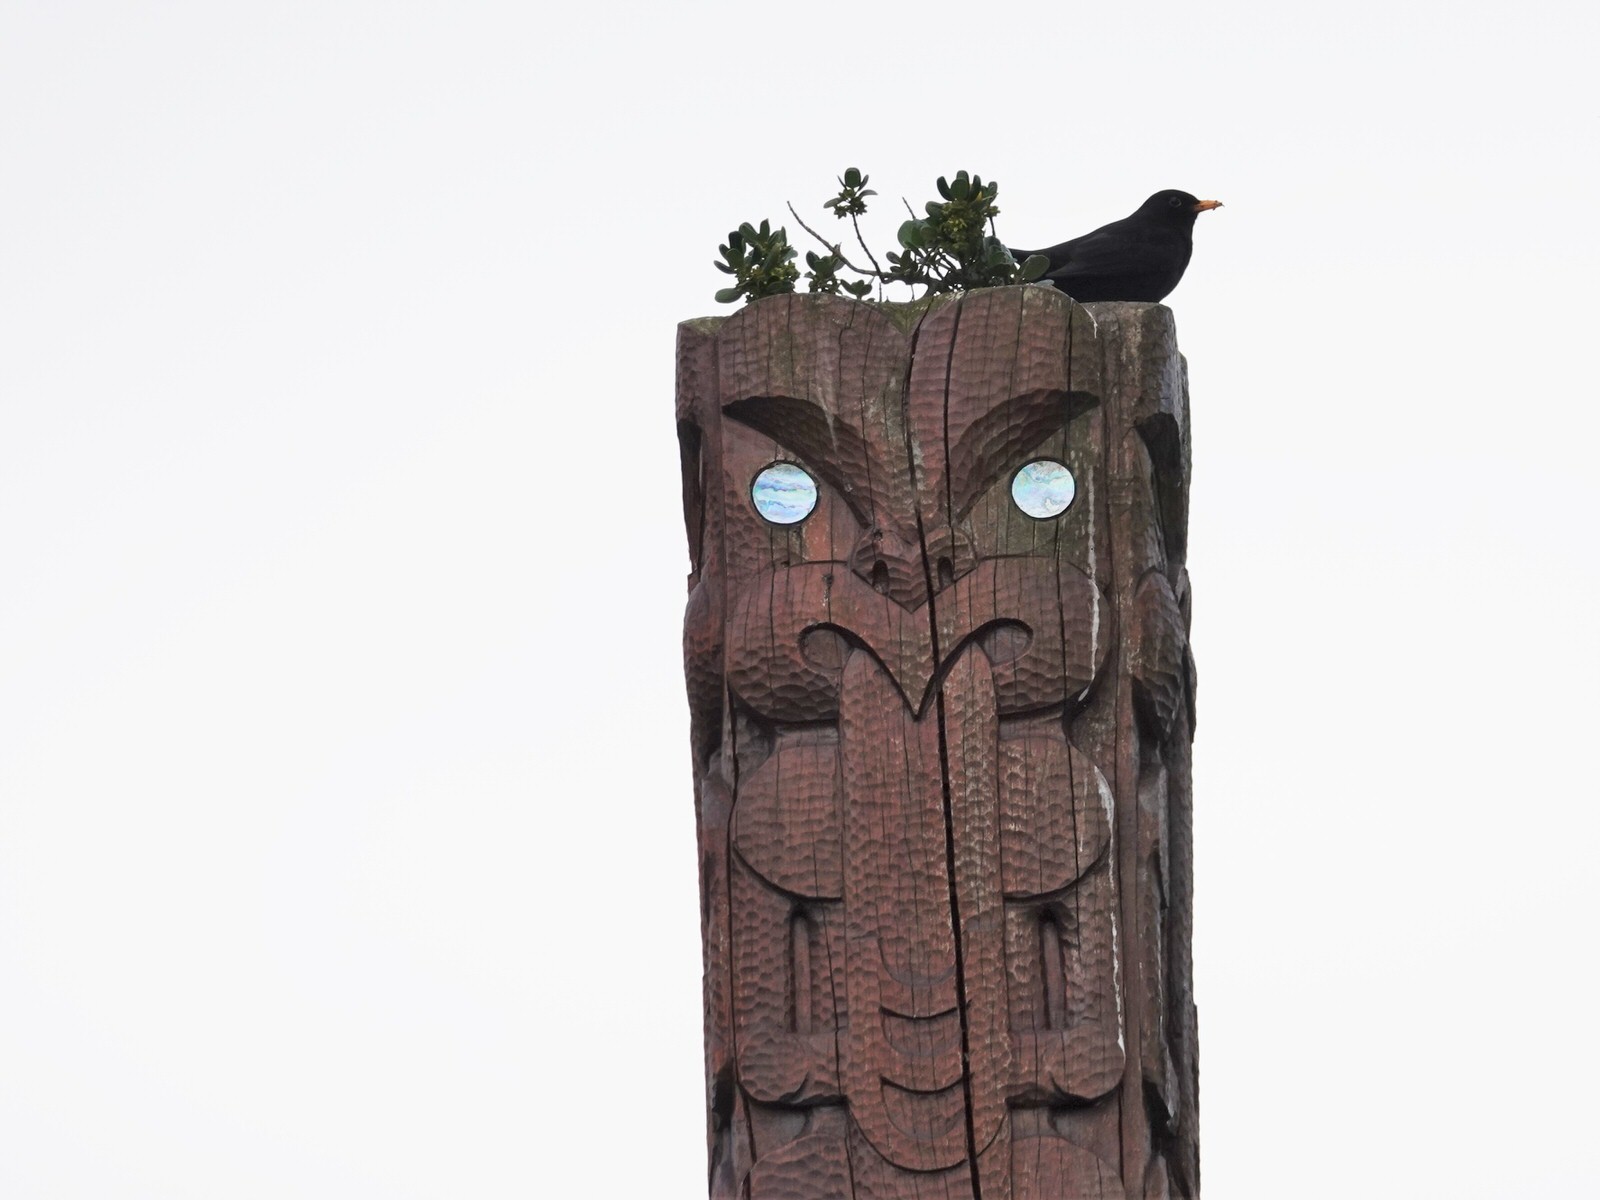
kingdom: Animalia
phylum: Chordata
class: Aves
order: Passeriformes
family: Turdidae
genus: Turdus
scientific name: Turdus merula
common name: Common blackbird
